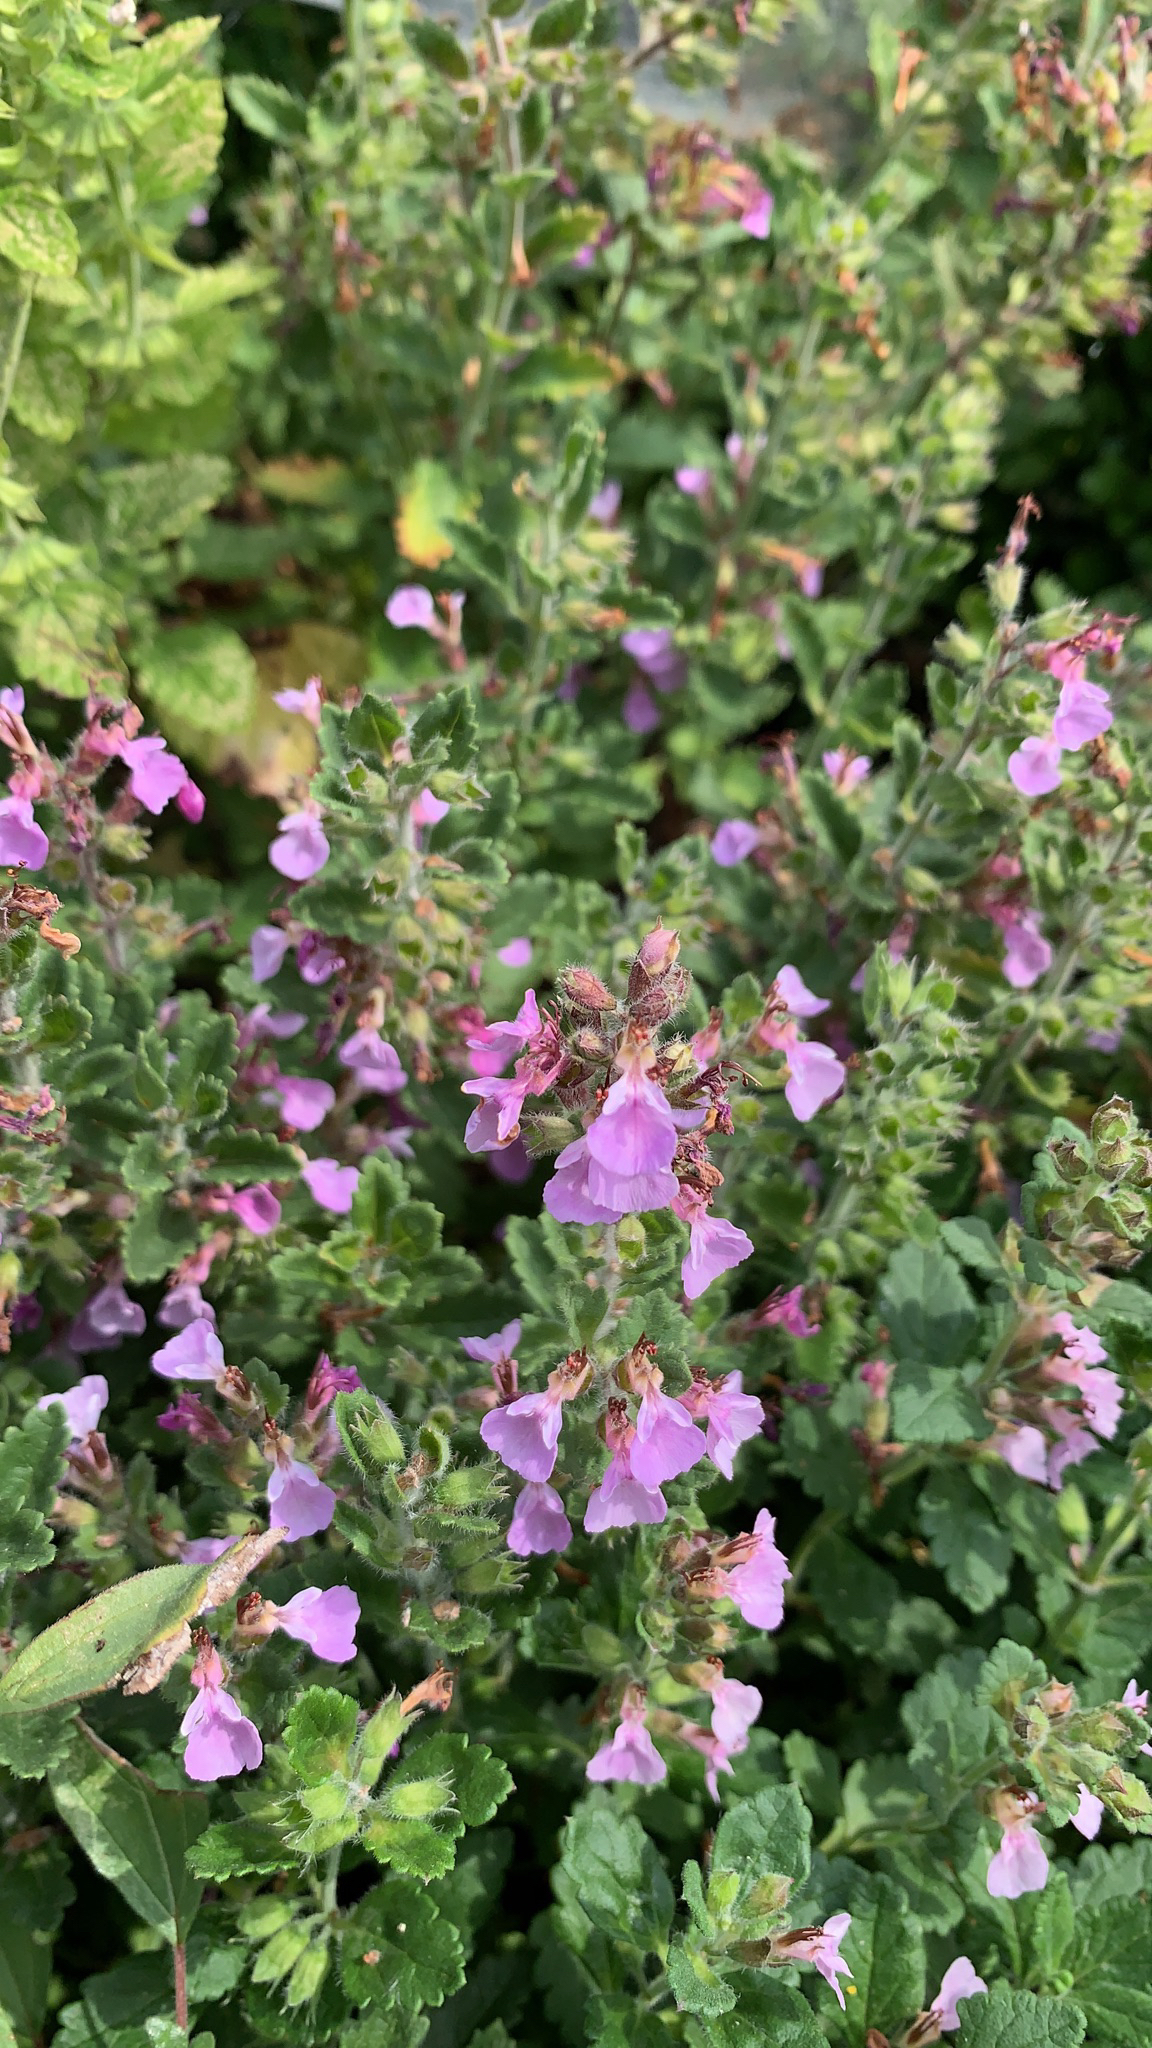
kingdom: Plantae
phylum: Tracheophyta
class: Magnoliopsida
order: Lamiales
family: Lamiaceae
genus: Teucrium
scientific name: Teucrium chamaedrys
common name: Wall germander
